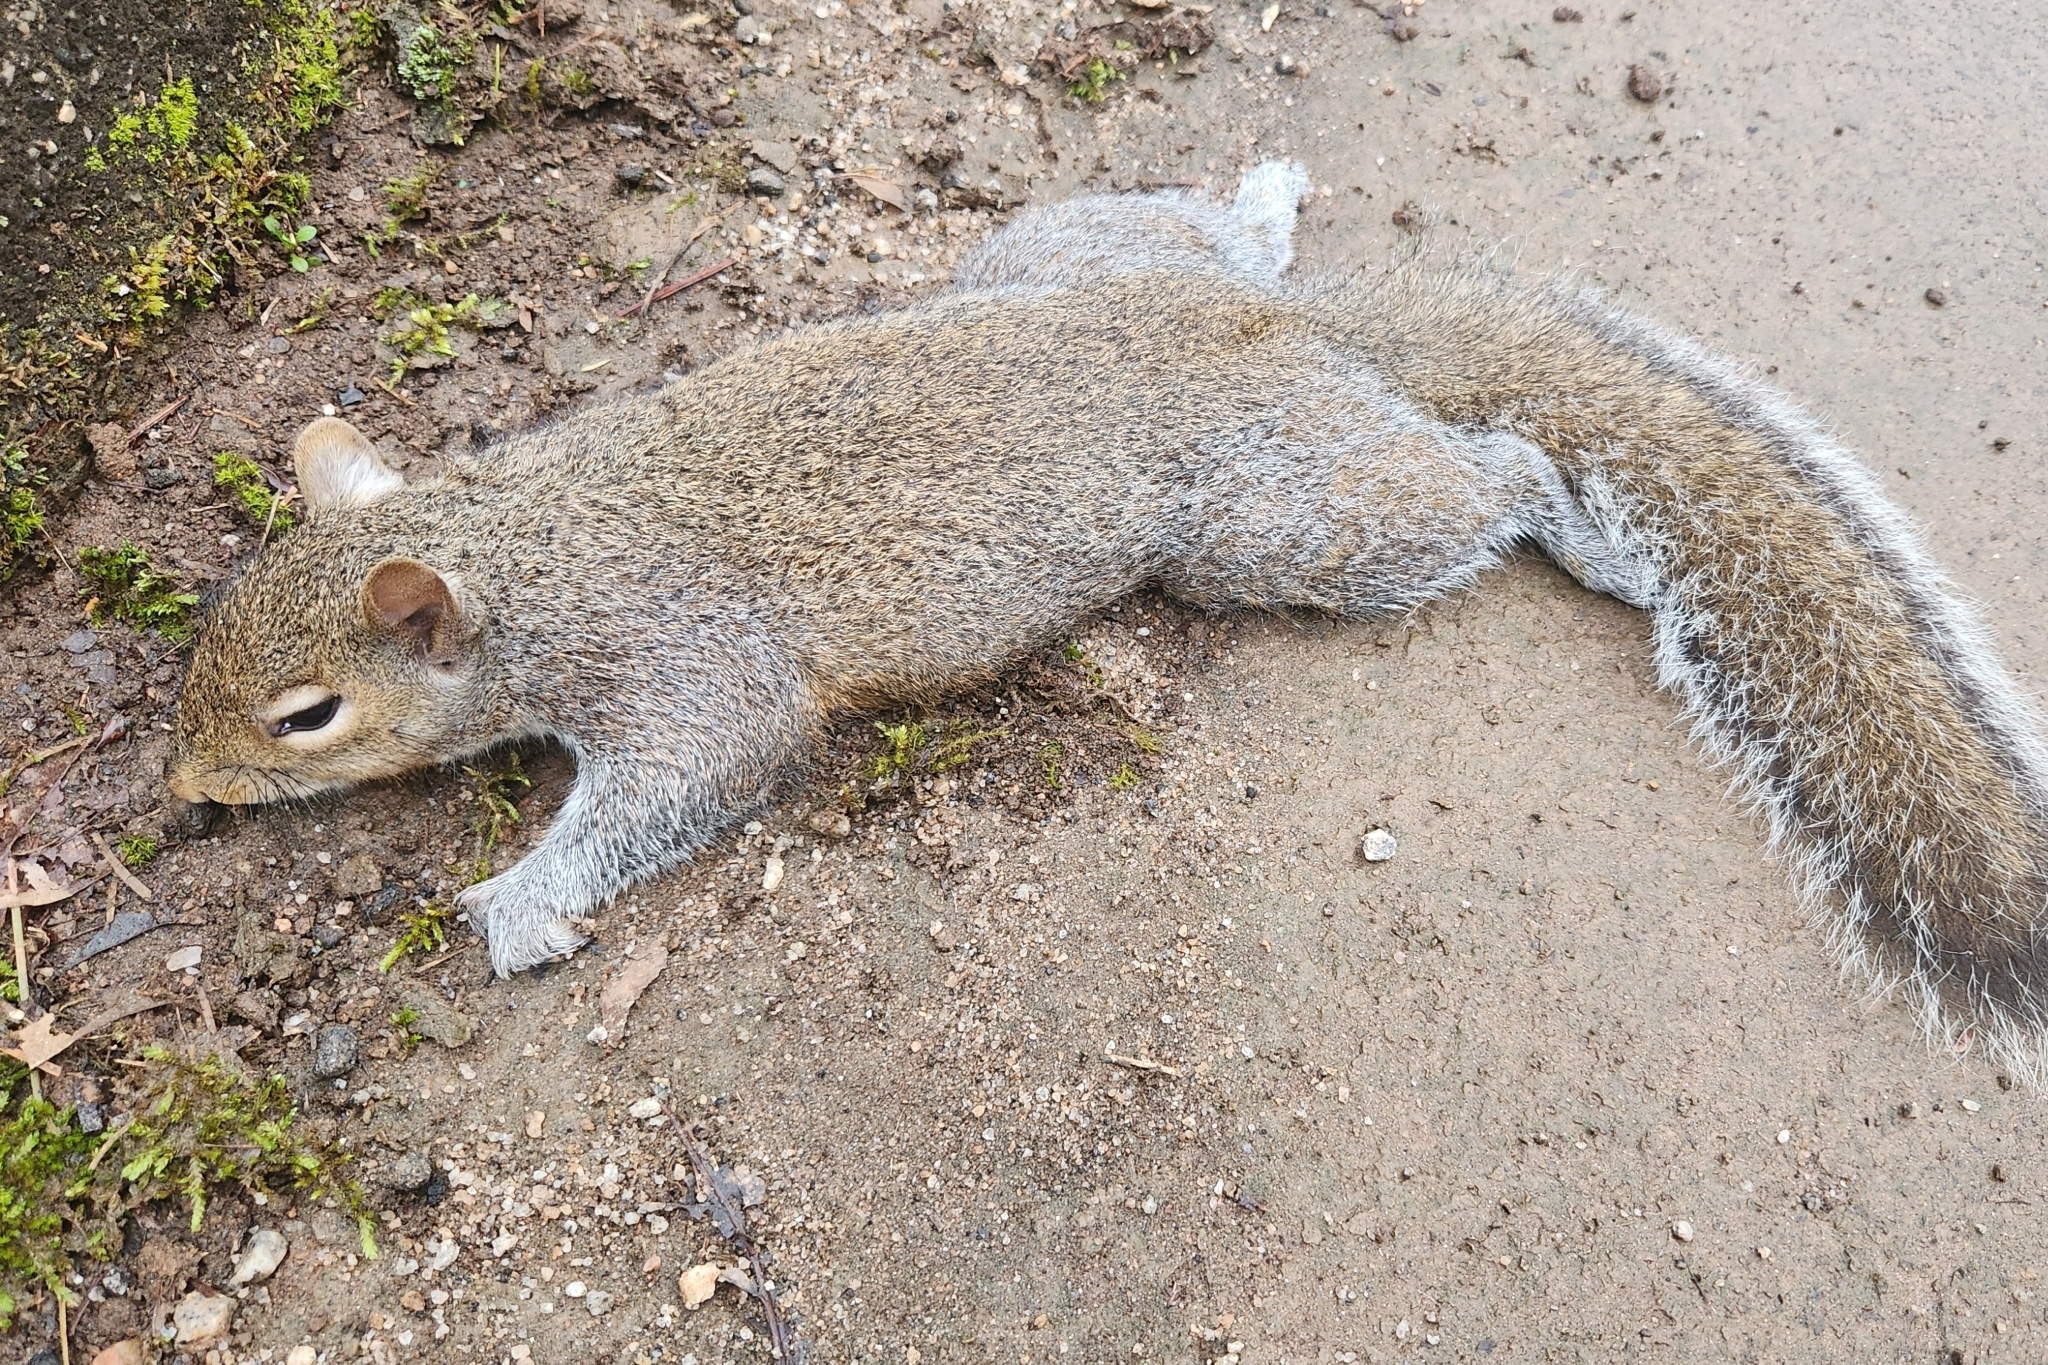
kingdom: Animalia
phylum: Chordata
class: Mammalia
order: Rodentia
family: Sciuridae
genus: Sciurus
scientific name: Sciurus carolinensis
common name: Eastern gray squirrel
